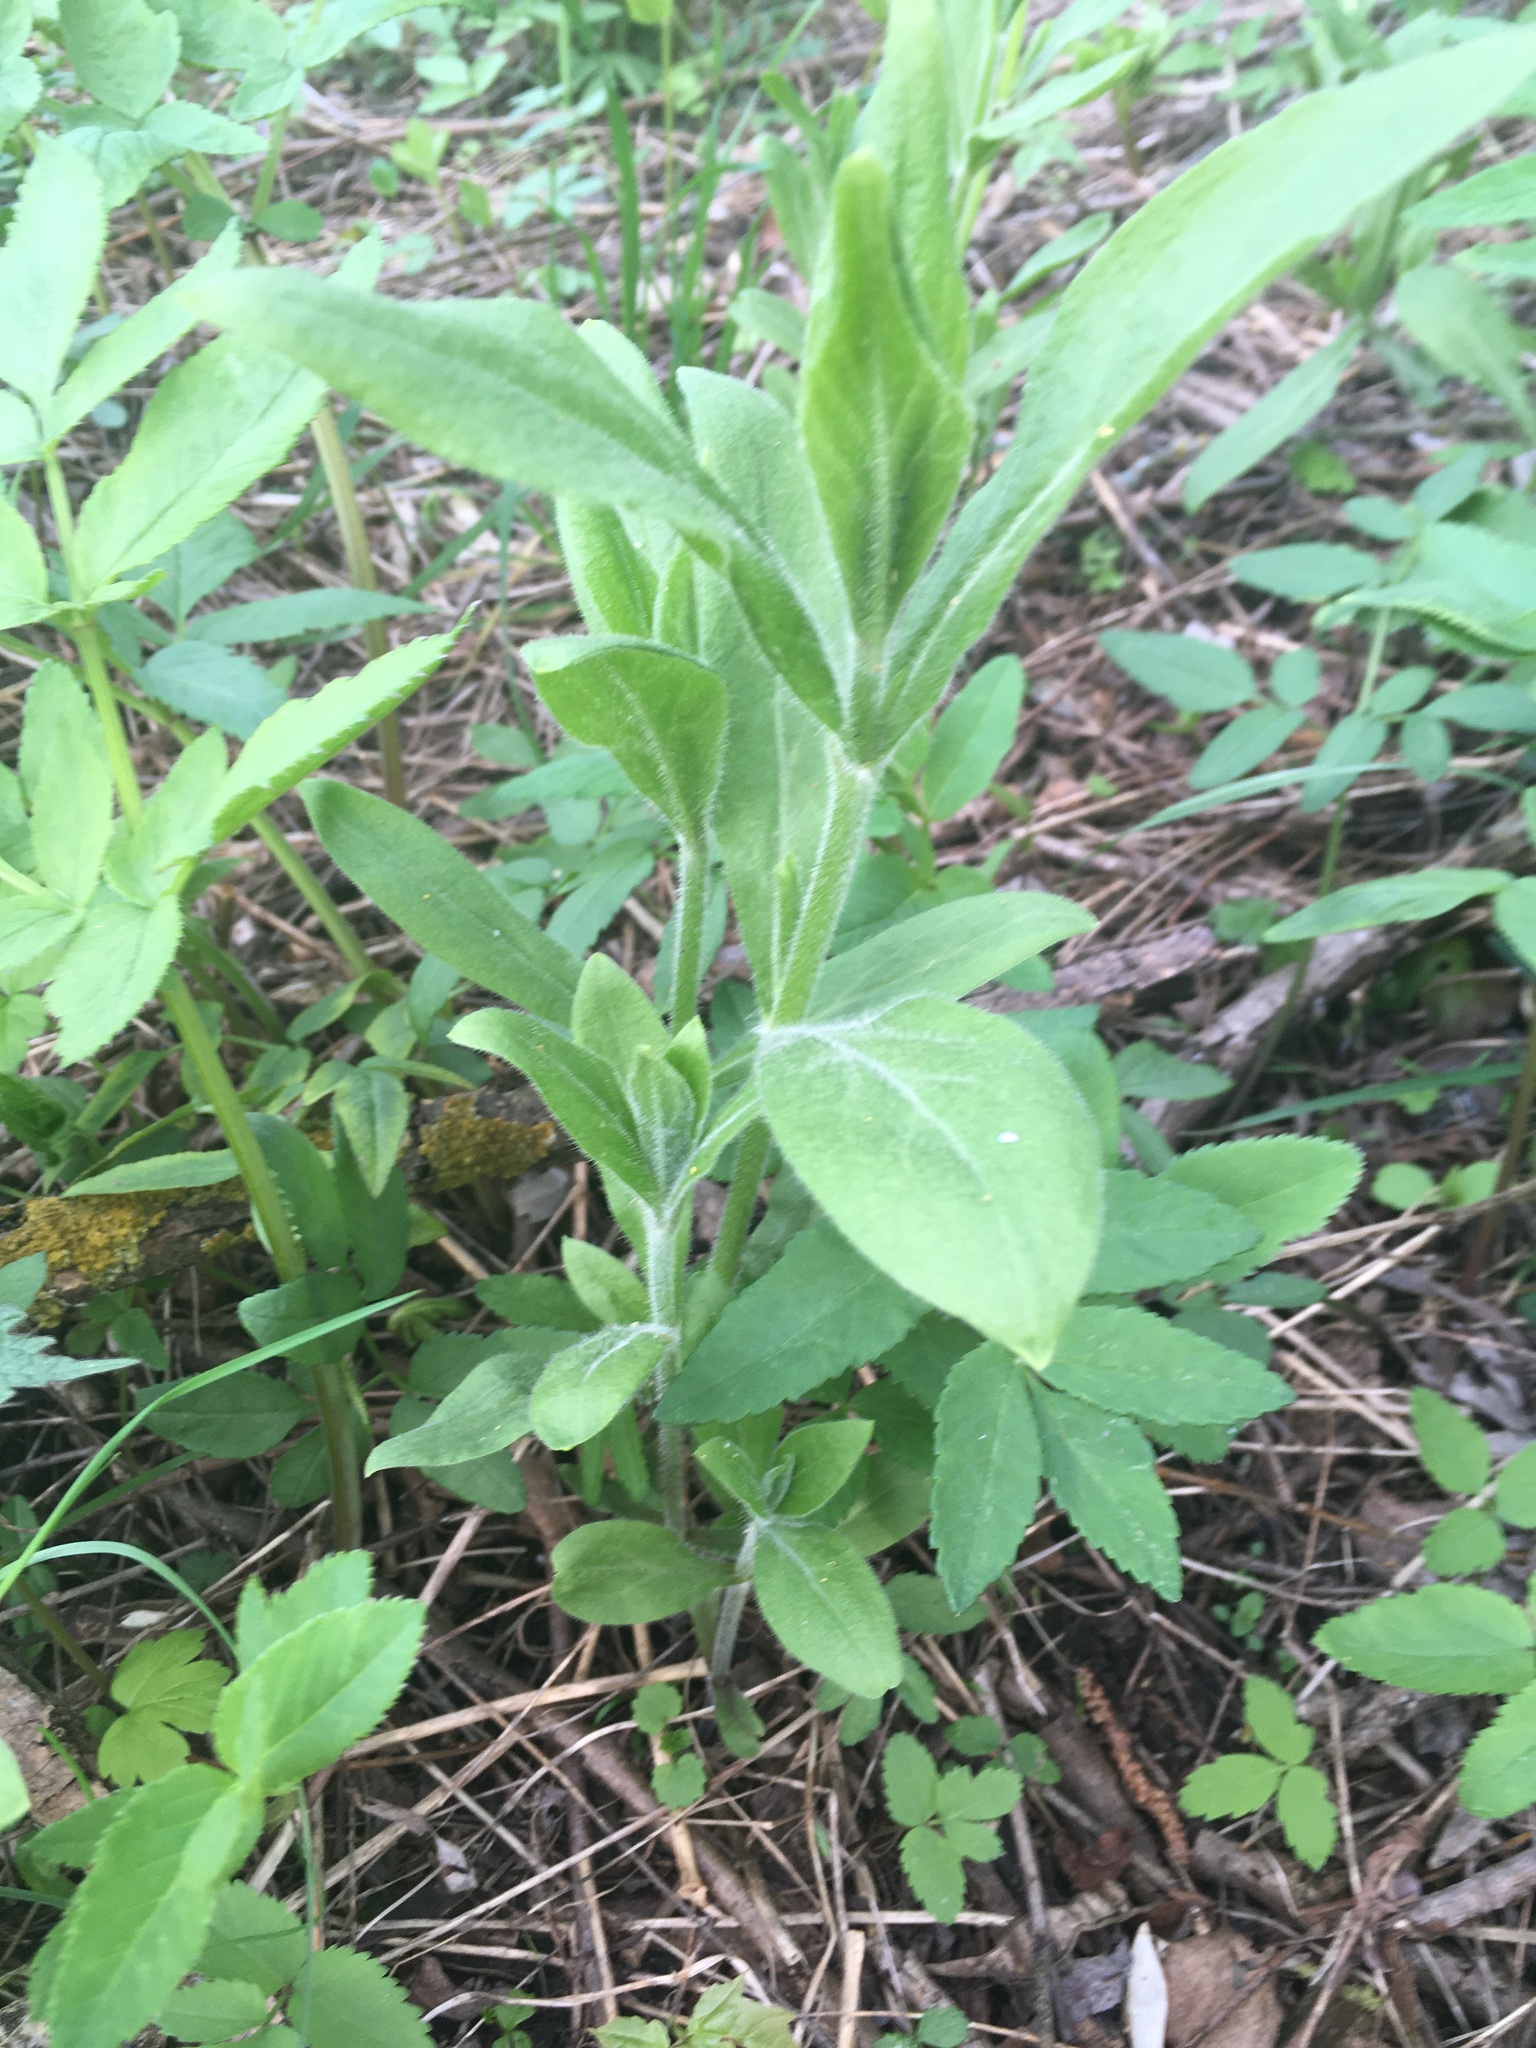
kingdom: Plantae
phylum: Tracheophyta
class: Magnoliopsida
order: Caryophyllales
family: Caryophyllaceae
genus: Silene
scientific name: Silene latifolia
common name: White campion
